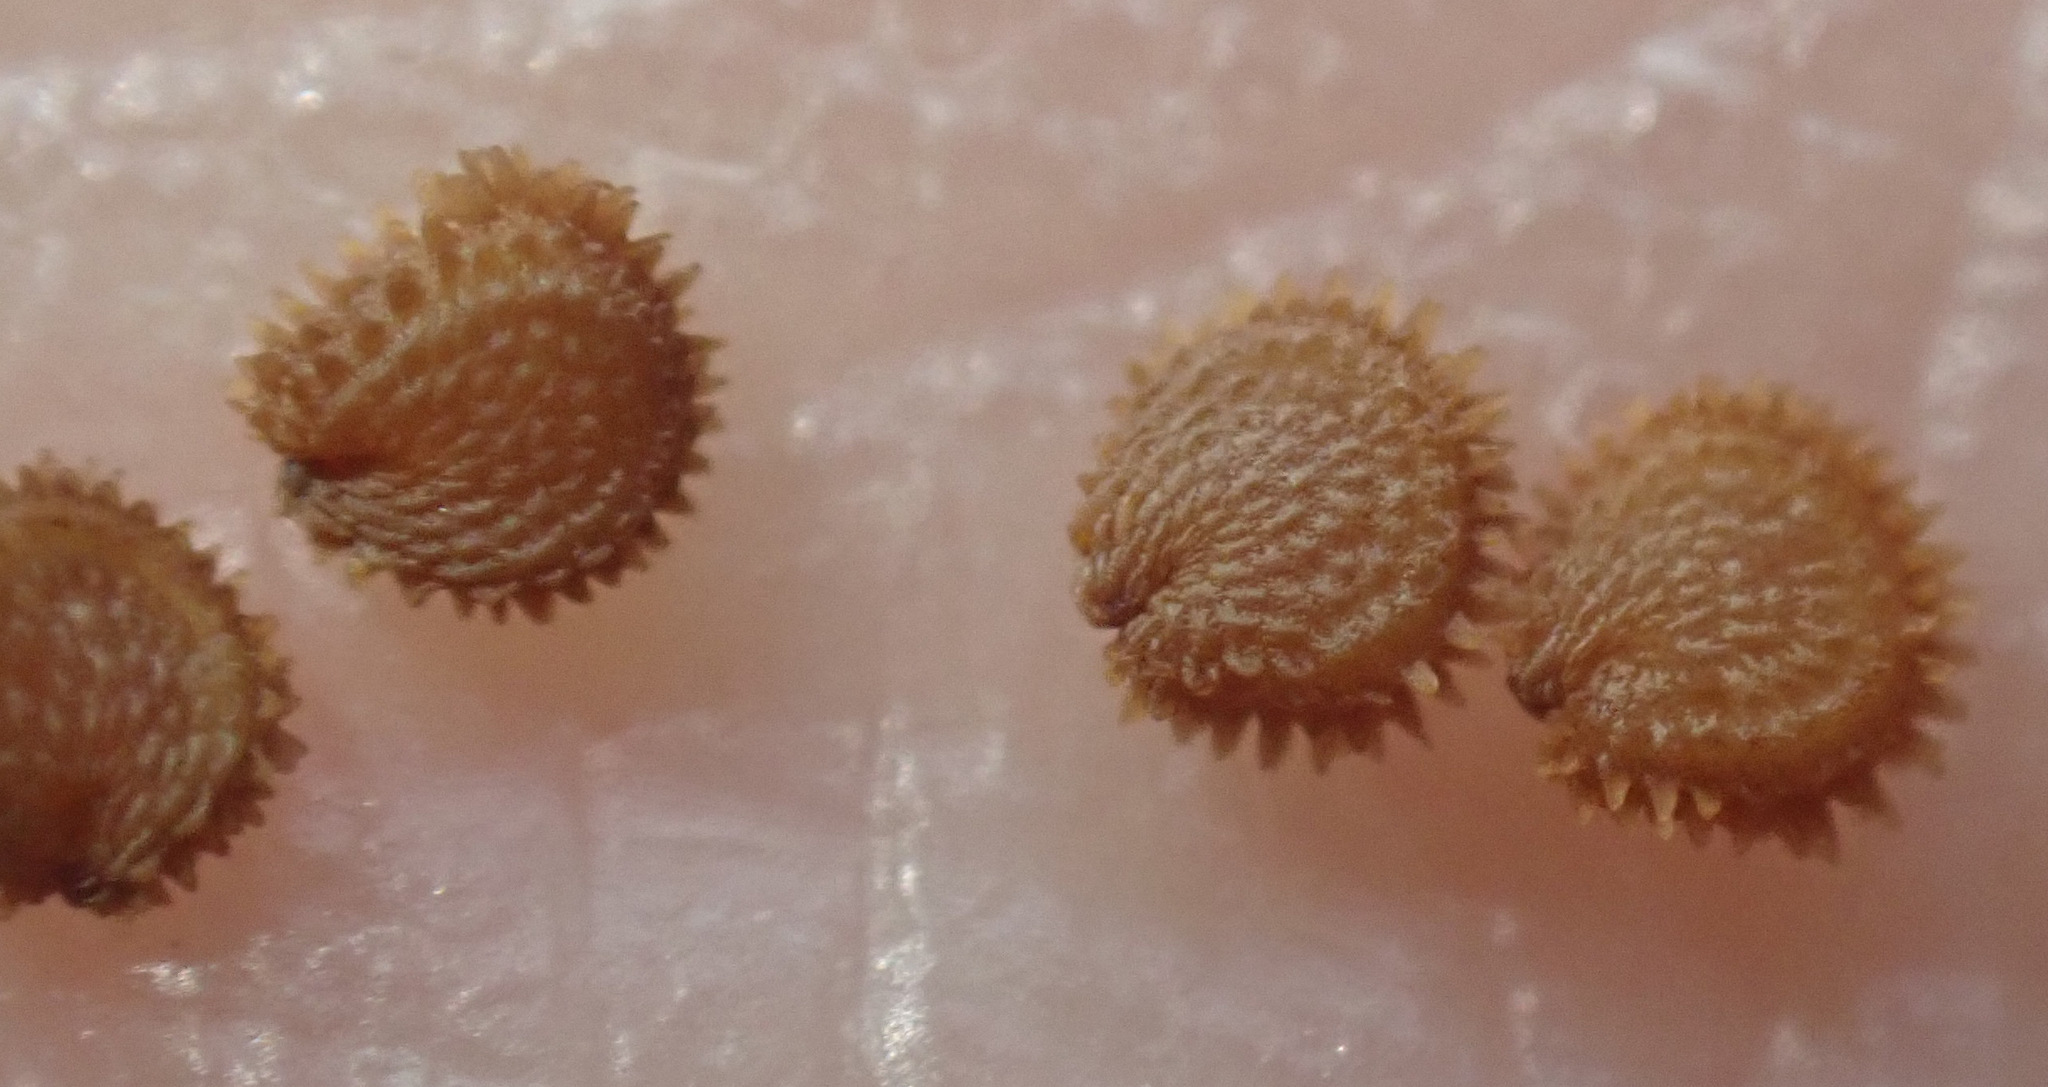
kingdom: Plantae
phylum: Tracheophyta
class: Magnoliopsida
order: Caryophyllales
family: Caryophyllaceae
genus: Stellaria
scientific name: Stellaria ruderalis
